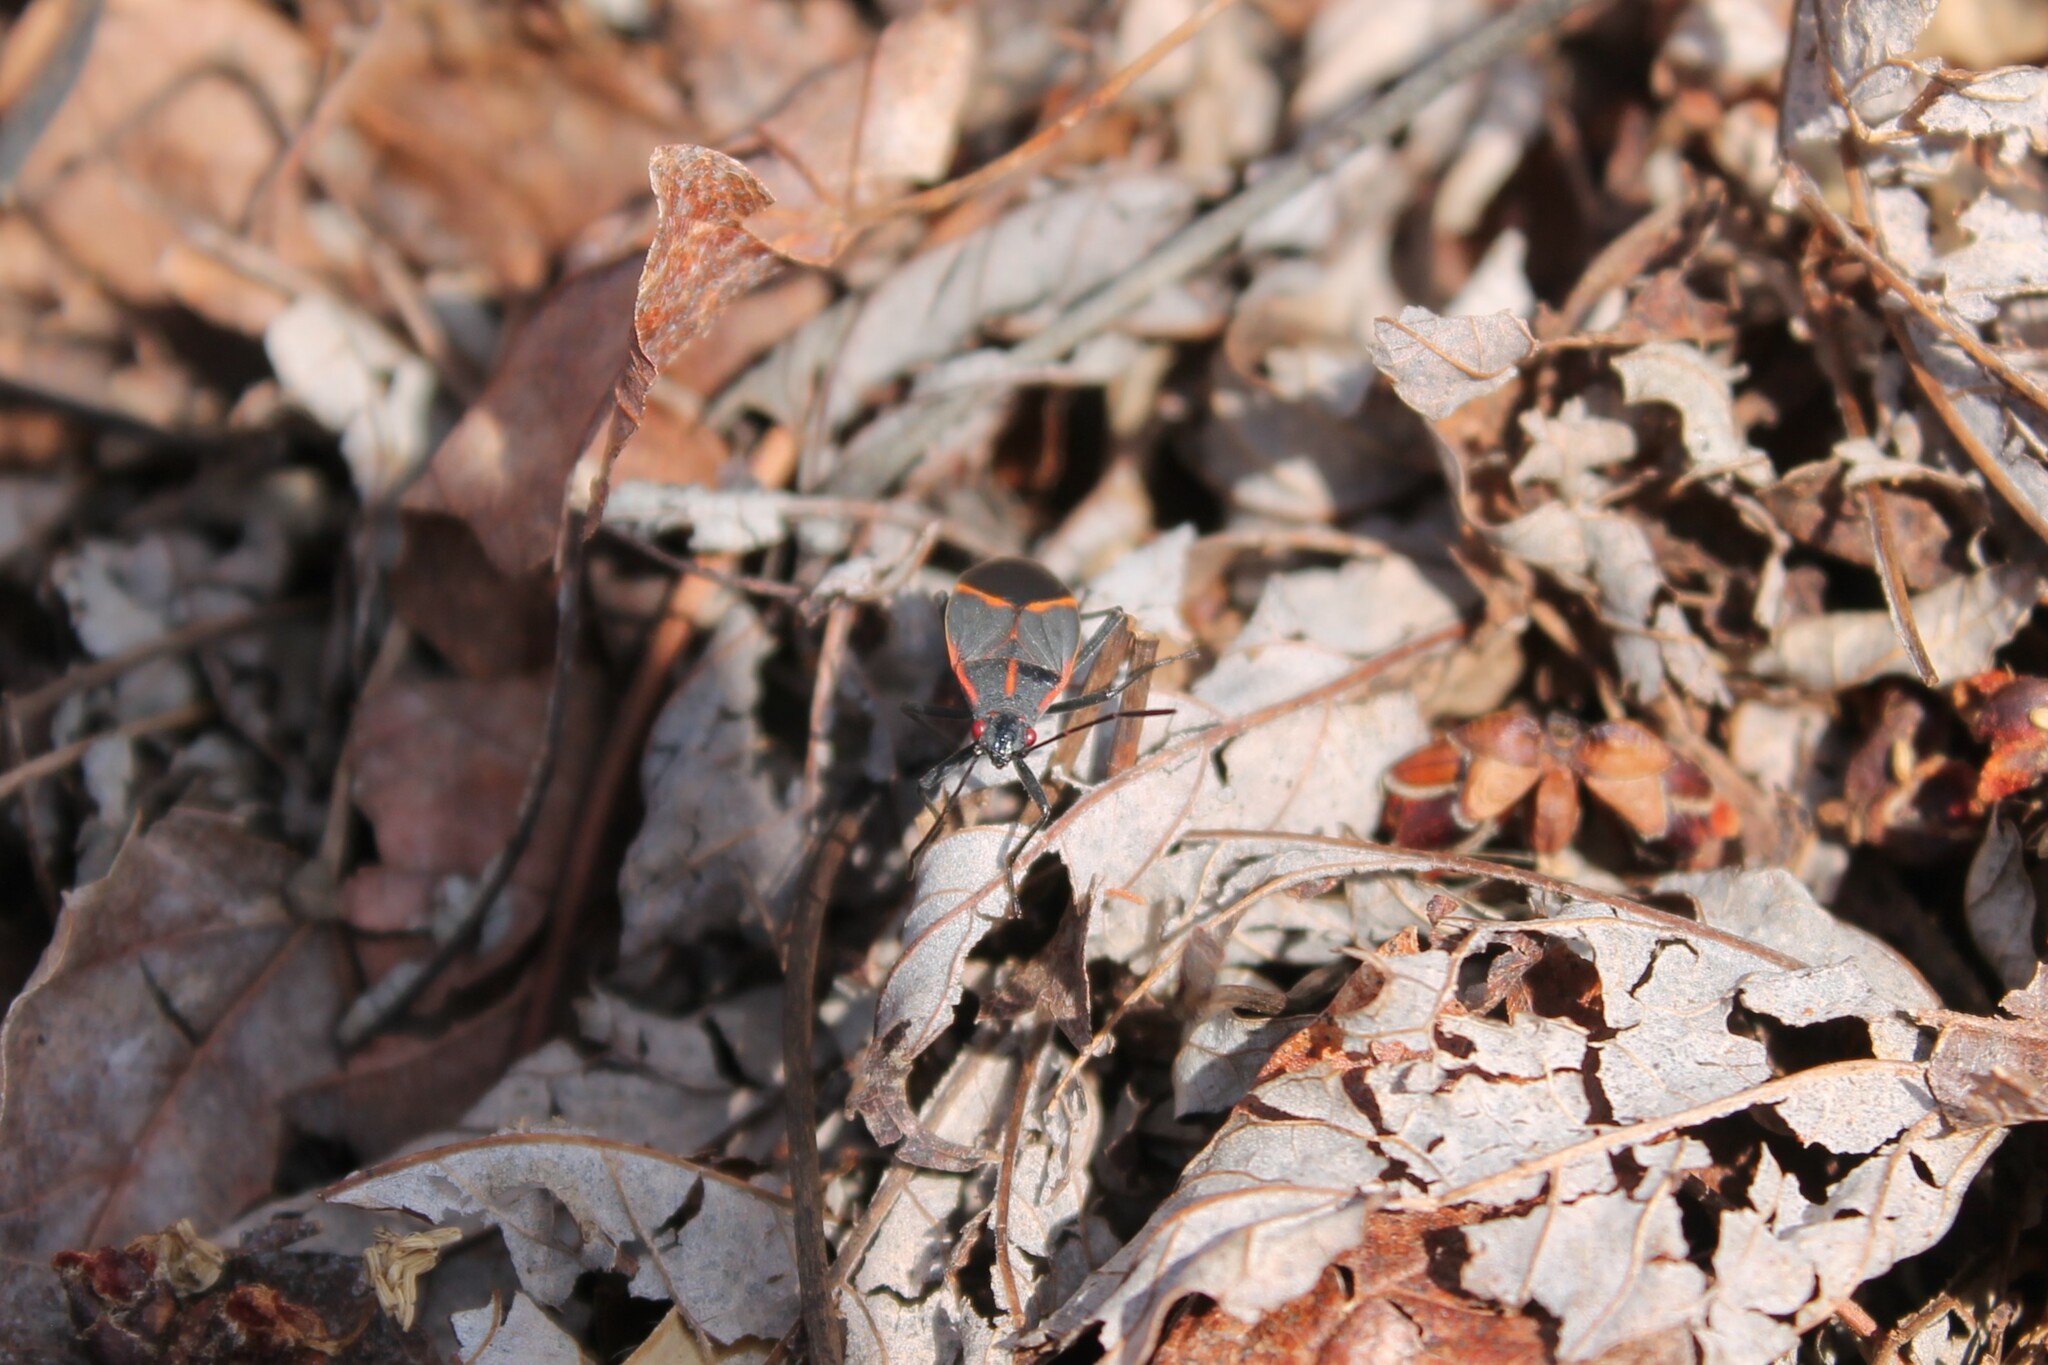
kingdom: Animalia
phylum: Arthropoda
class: Insecta
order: Hemiptera
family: Rhopalidae
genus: Boisea
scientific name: Boisea trivittata
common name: Boxelder bug
